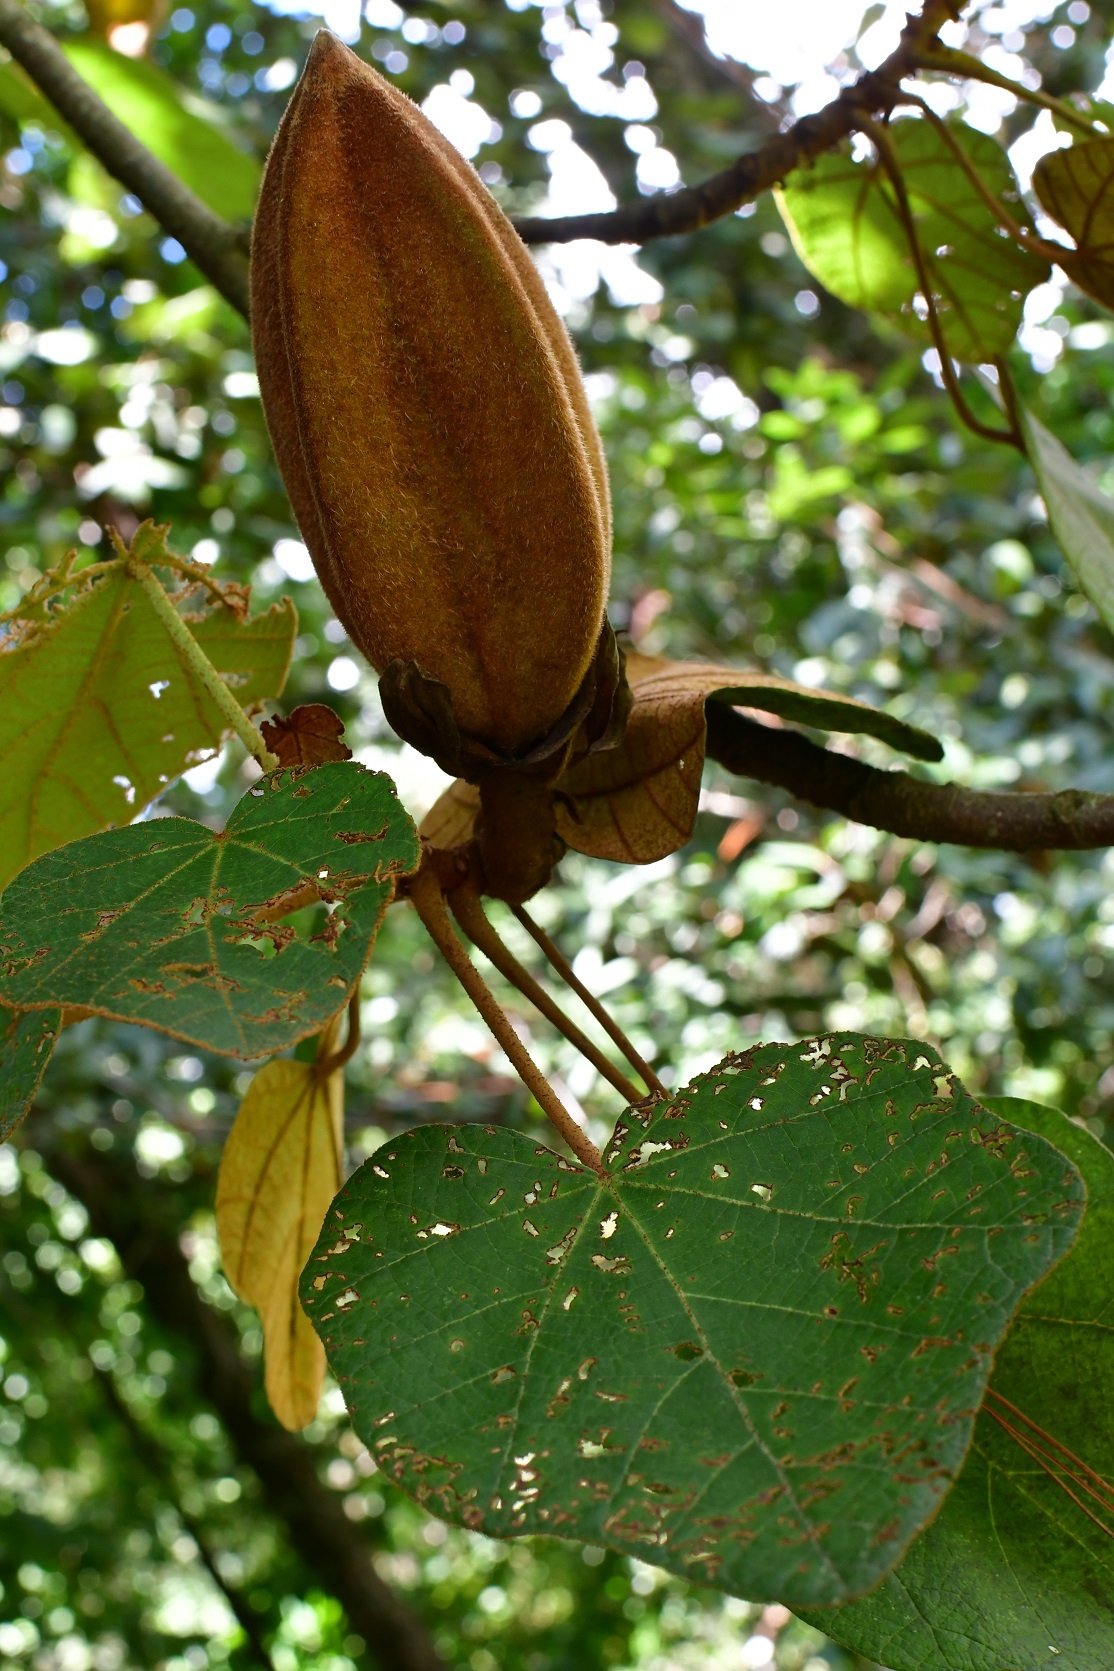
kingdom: Plantae
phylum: Tracheophyta
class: Magnoliopsida
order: Malvales
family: Malvaceae
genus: Chiranthodendron
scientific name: Chiranthodendron pentadactylon
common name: Mexican-hat-plant
